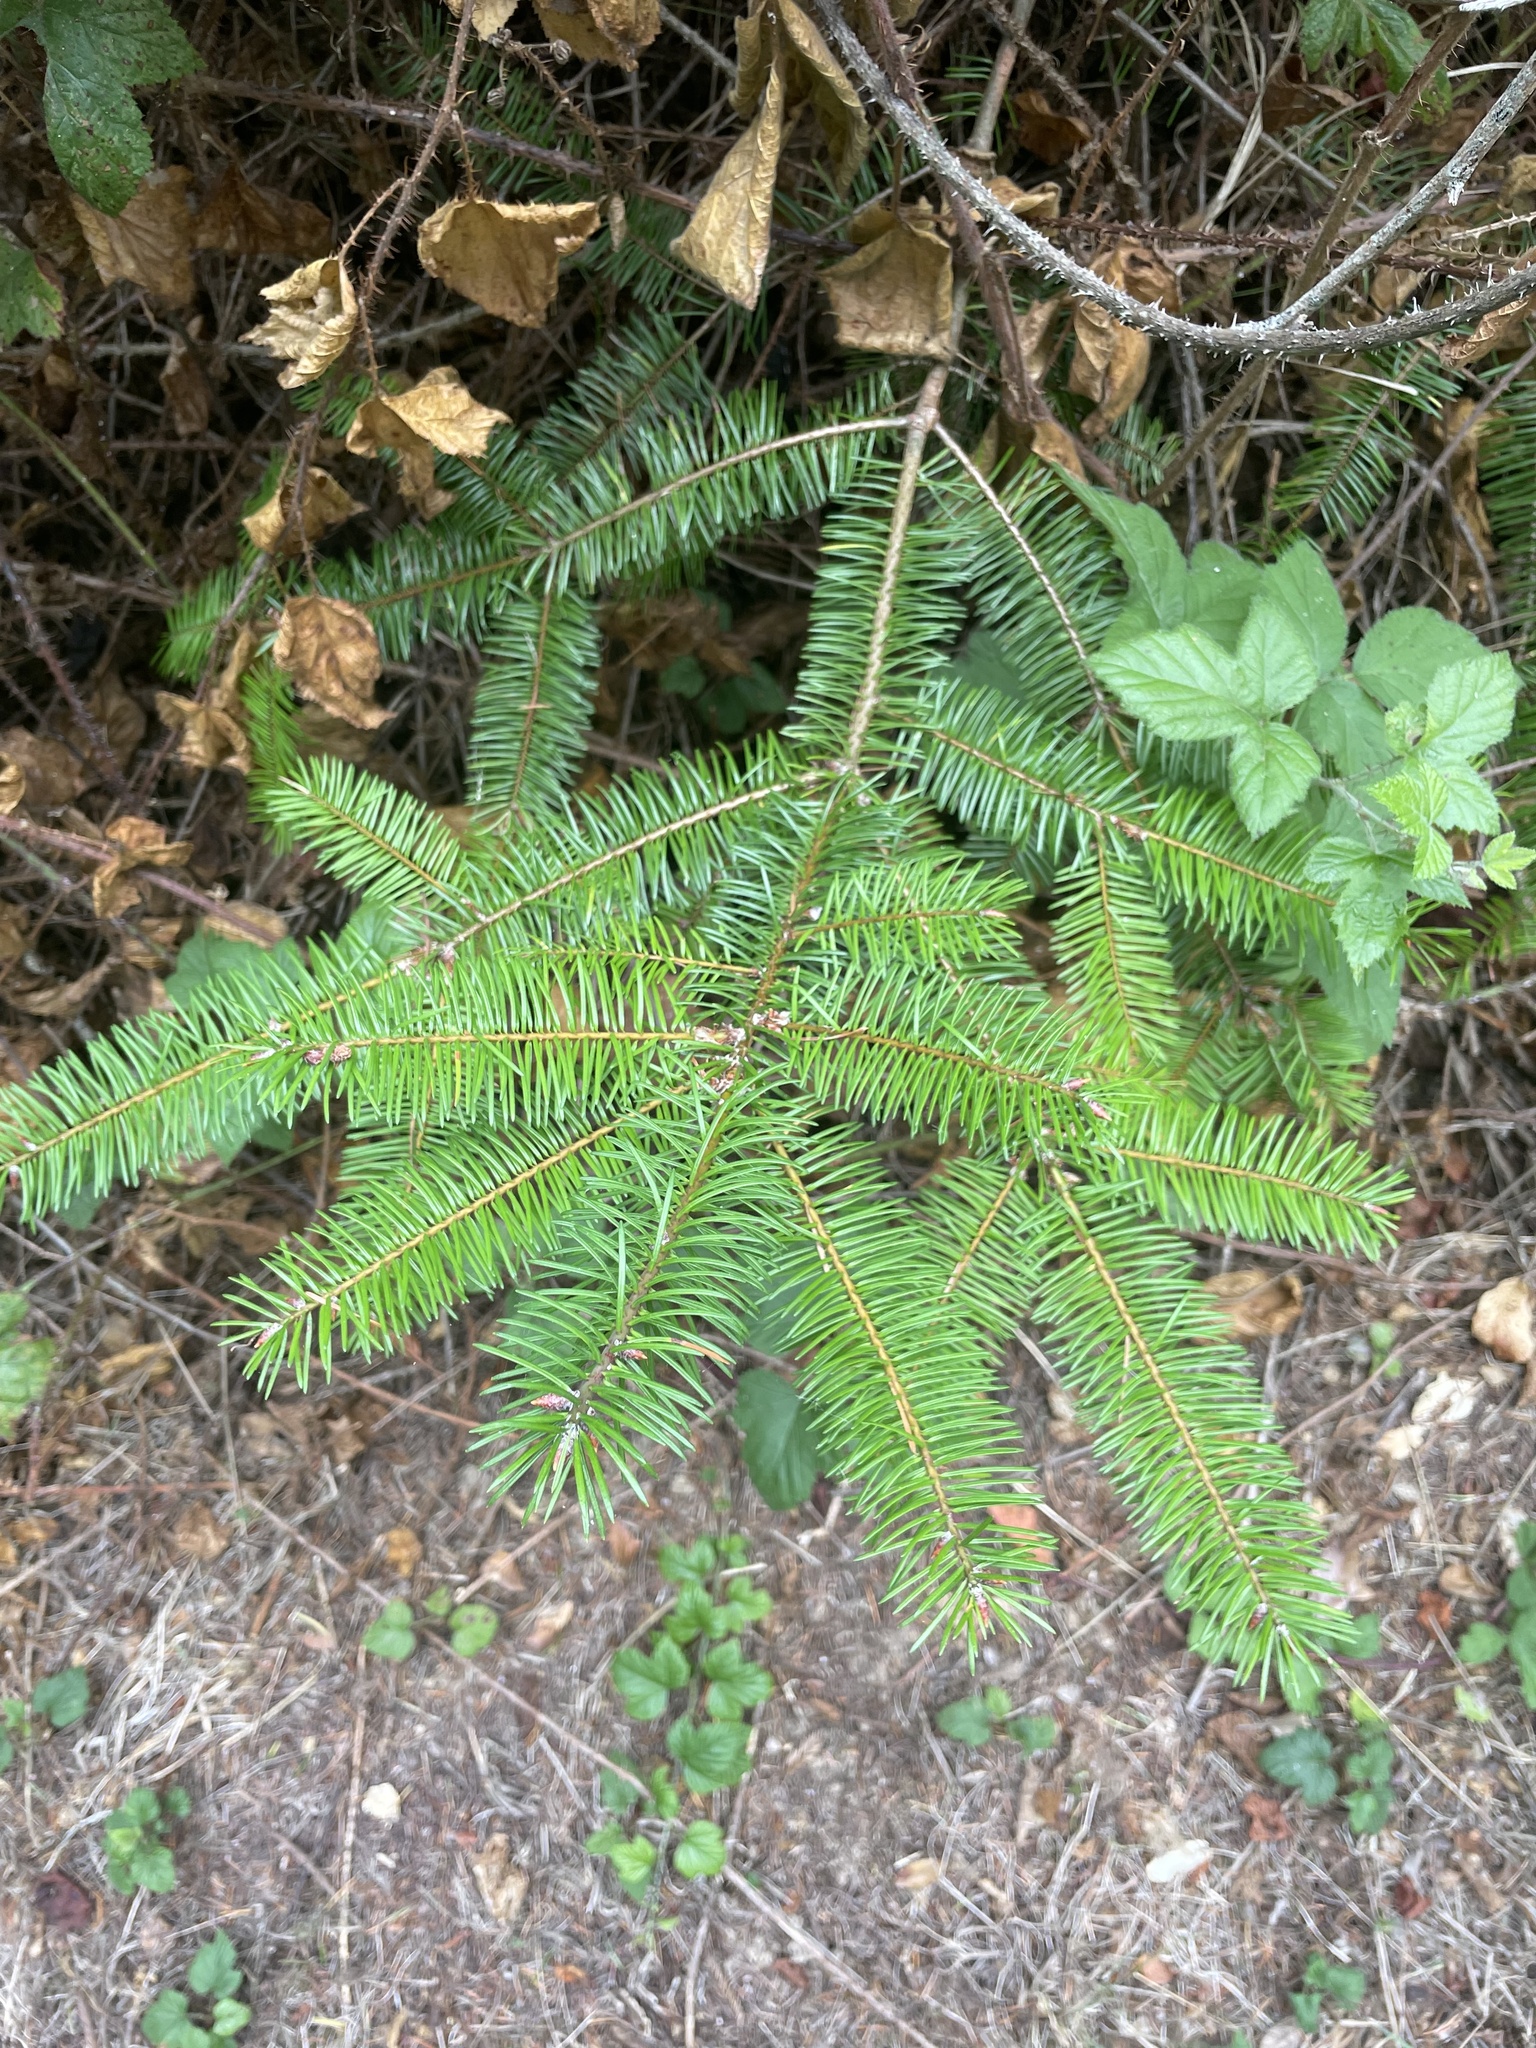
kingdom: Plantae
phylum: Tracheophyta
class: Pinopsida
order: Pinales
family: Pinaceae
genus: Pseudotsuga
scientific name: Pseudotsuga menziesii
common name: Douglas fir
